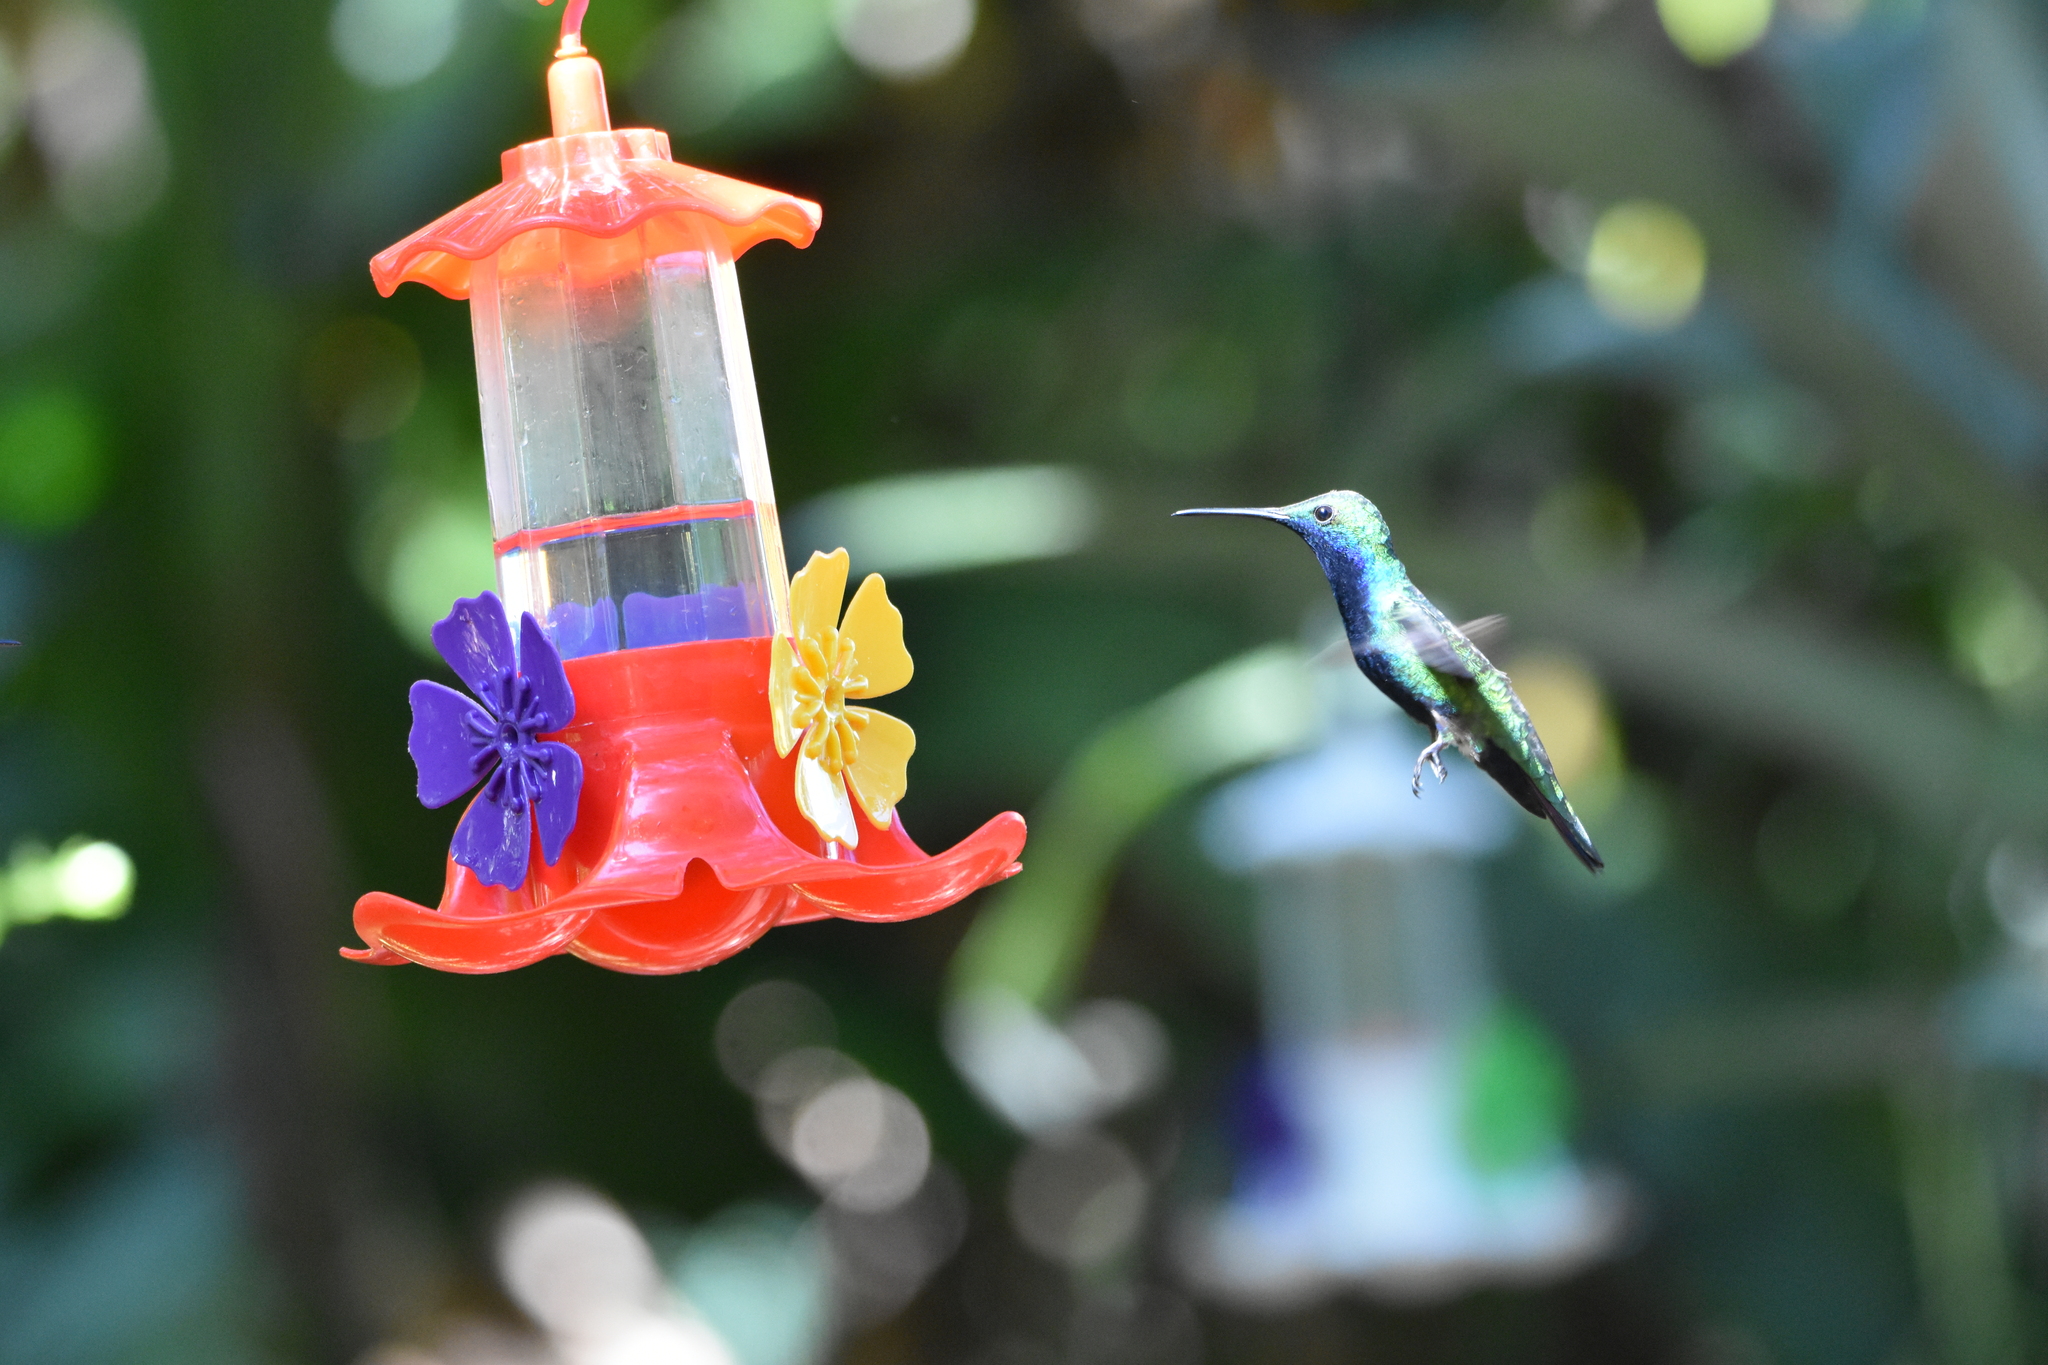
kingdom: Animalia
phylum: Chordata
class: Aves
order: Apodiformes
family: Trochilidae
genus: Anthracothorax
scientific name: Anthracothorax nigricollis
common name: Black-throated mango
